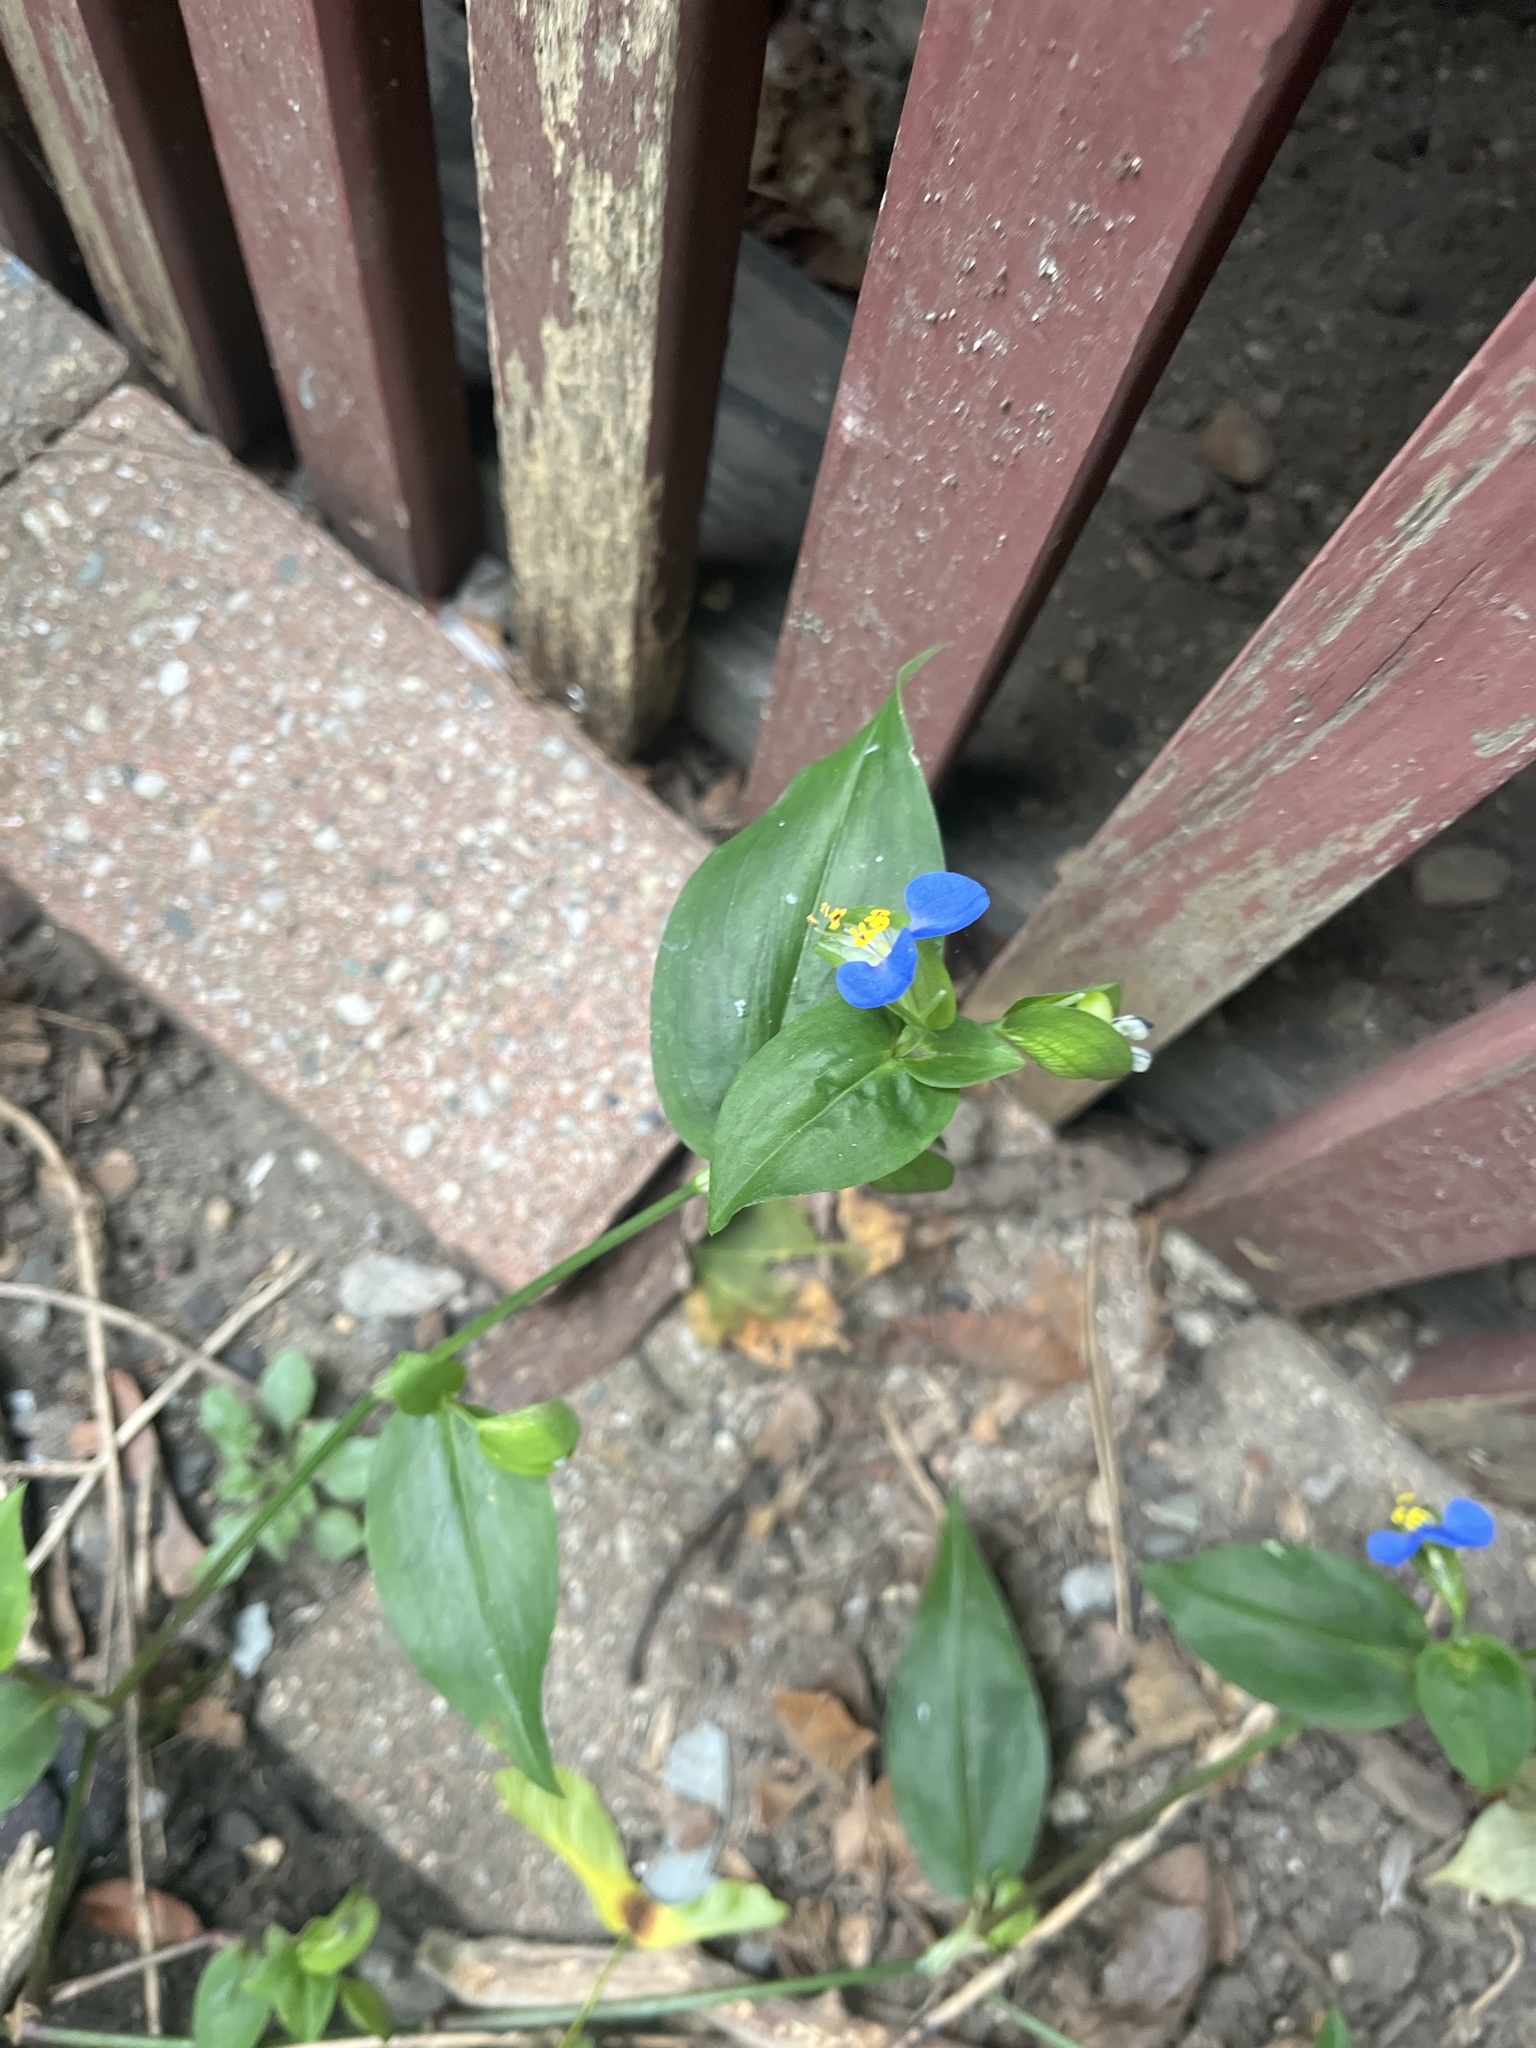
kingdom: Plantae
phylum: Tracheophyta
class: Liliopsida
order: Commelinales
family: Commelinaceae
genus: Commelina
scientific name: Commelina communis
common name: Asiatic dayflower
